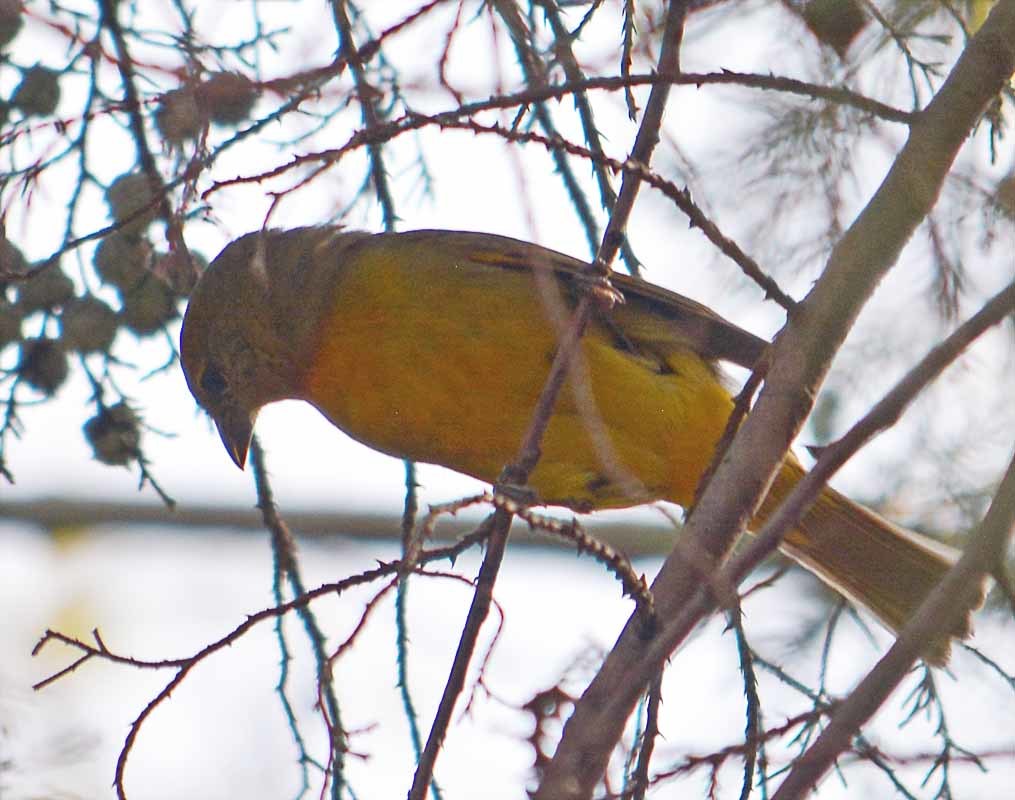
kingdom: Animalia
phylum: Chordata
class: Aves
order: Passeriformes
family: Cardinalidae
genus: Piranga
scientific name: Piranga flava
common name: Red tanager
